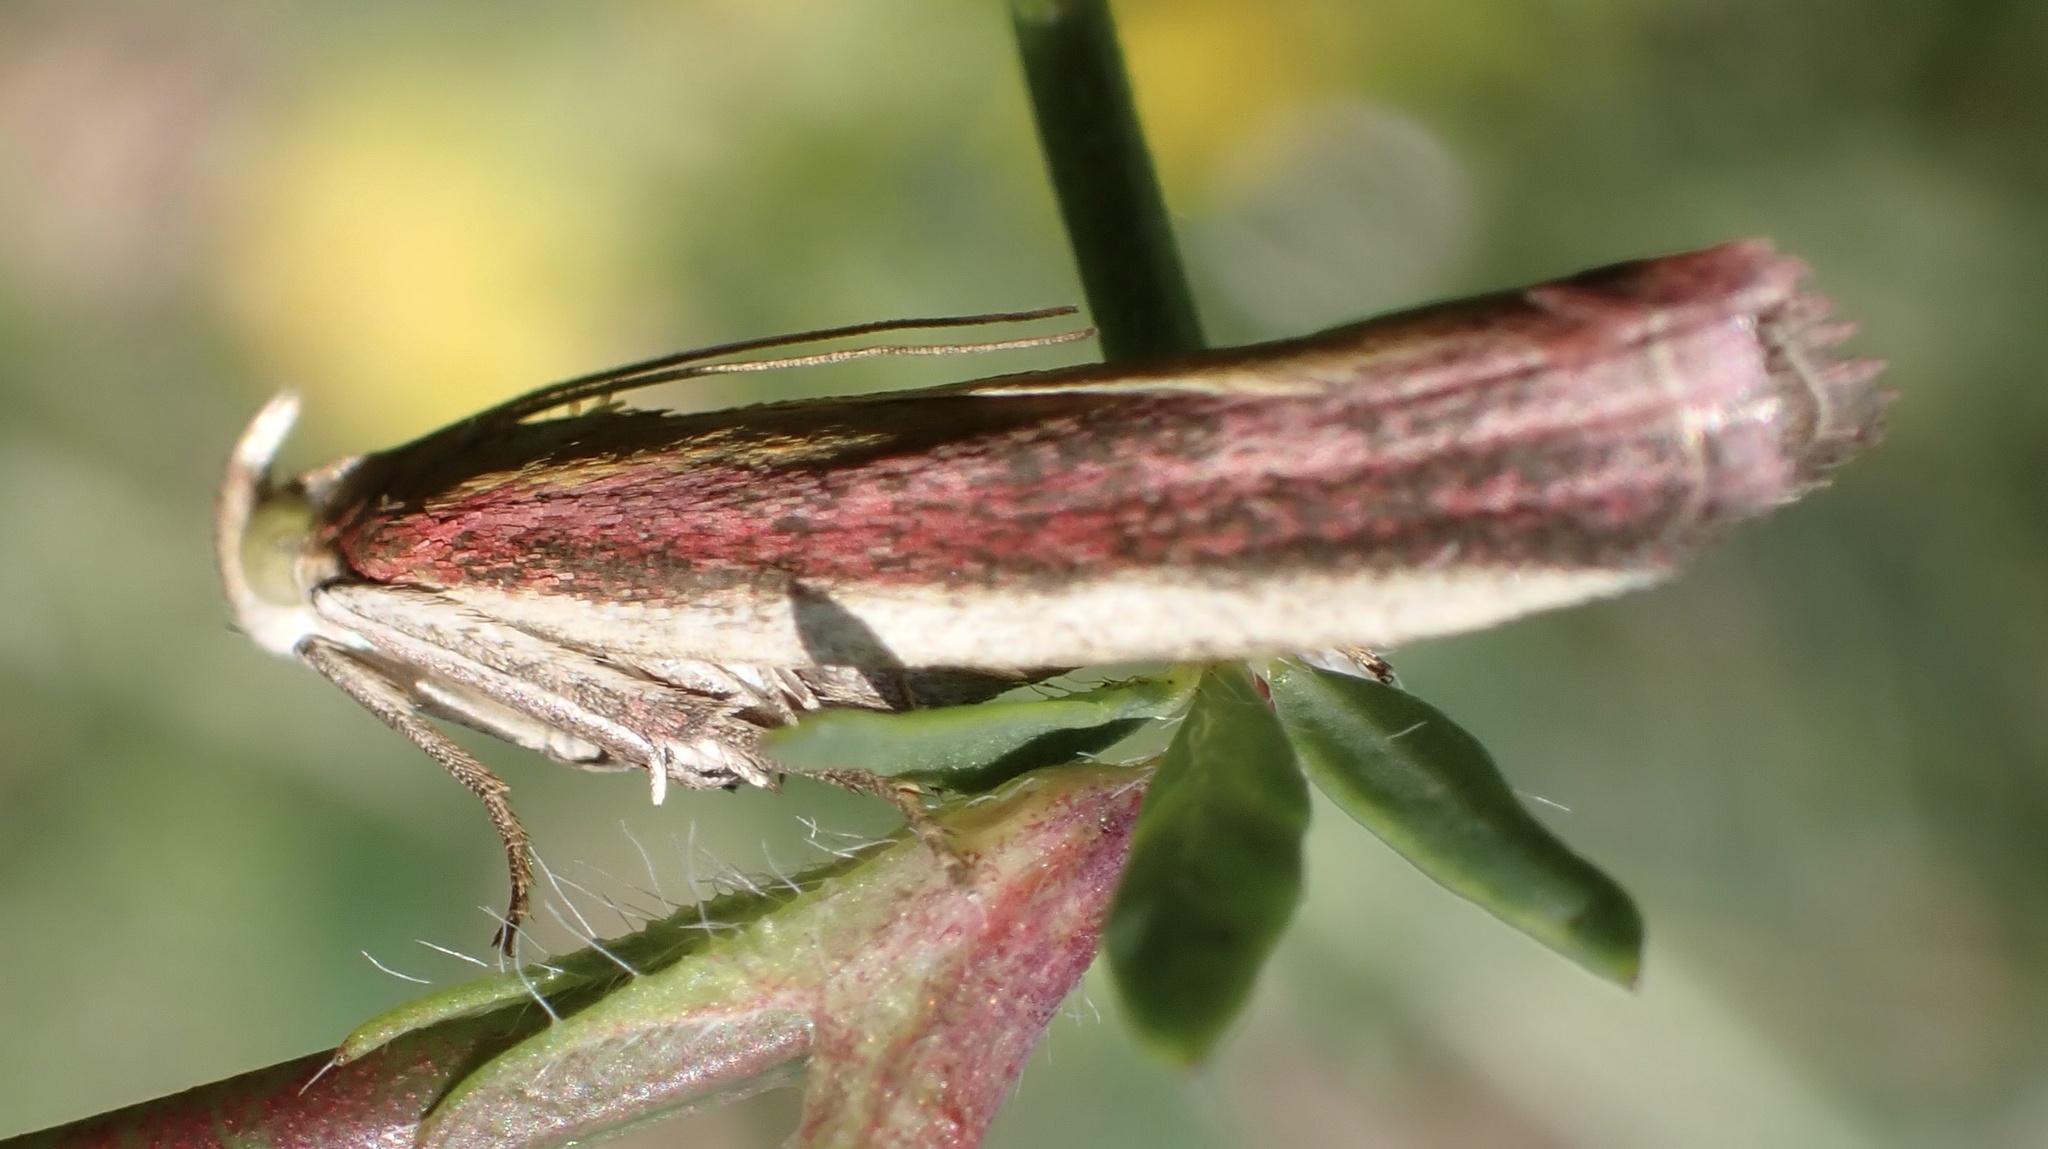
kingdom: Animalia
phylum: Arthropoda
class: Insecta
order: Lepidoptera
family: Pyralidae
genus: Oncocera
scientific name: Oncocera semirubella
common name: Rosy-striped knot-horn
